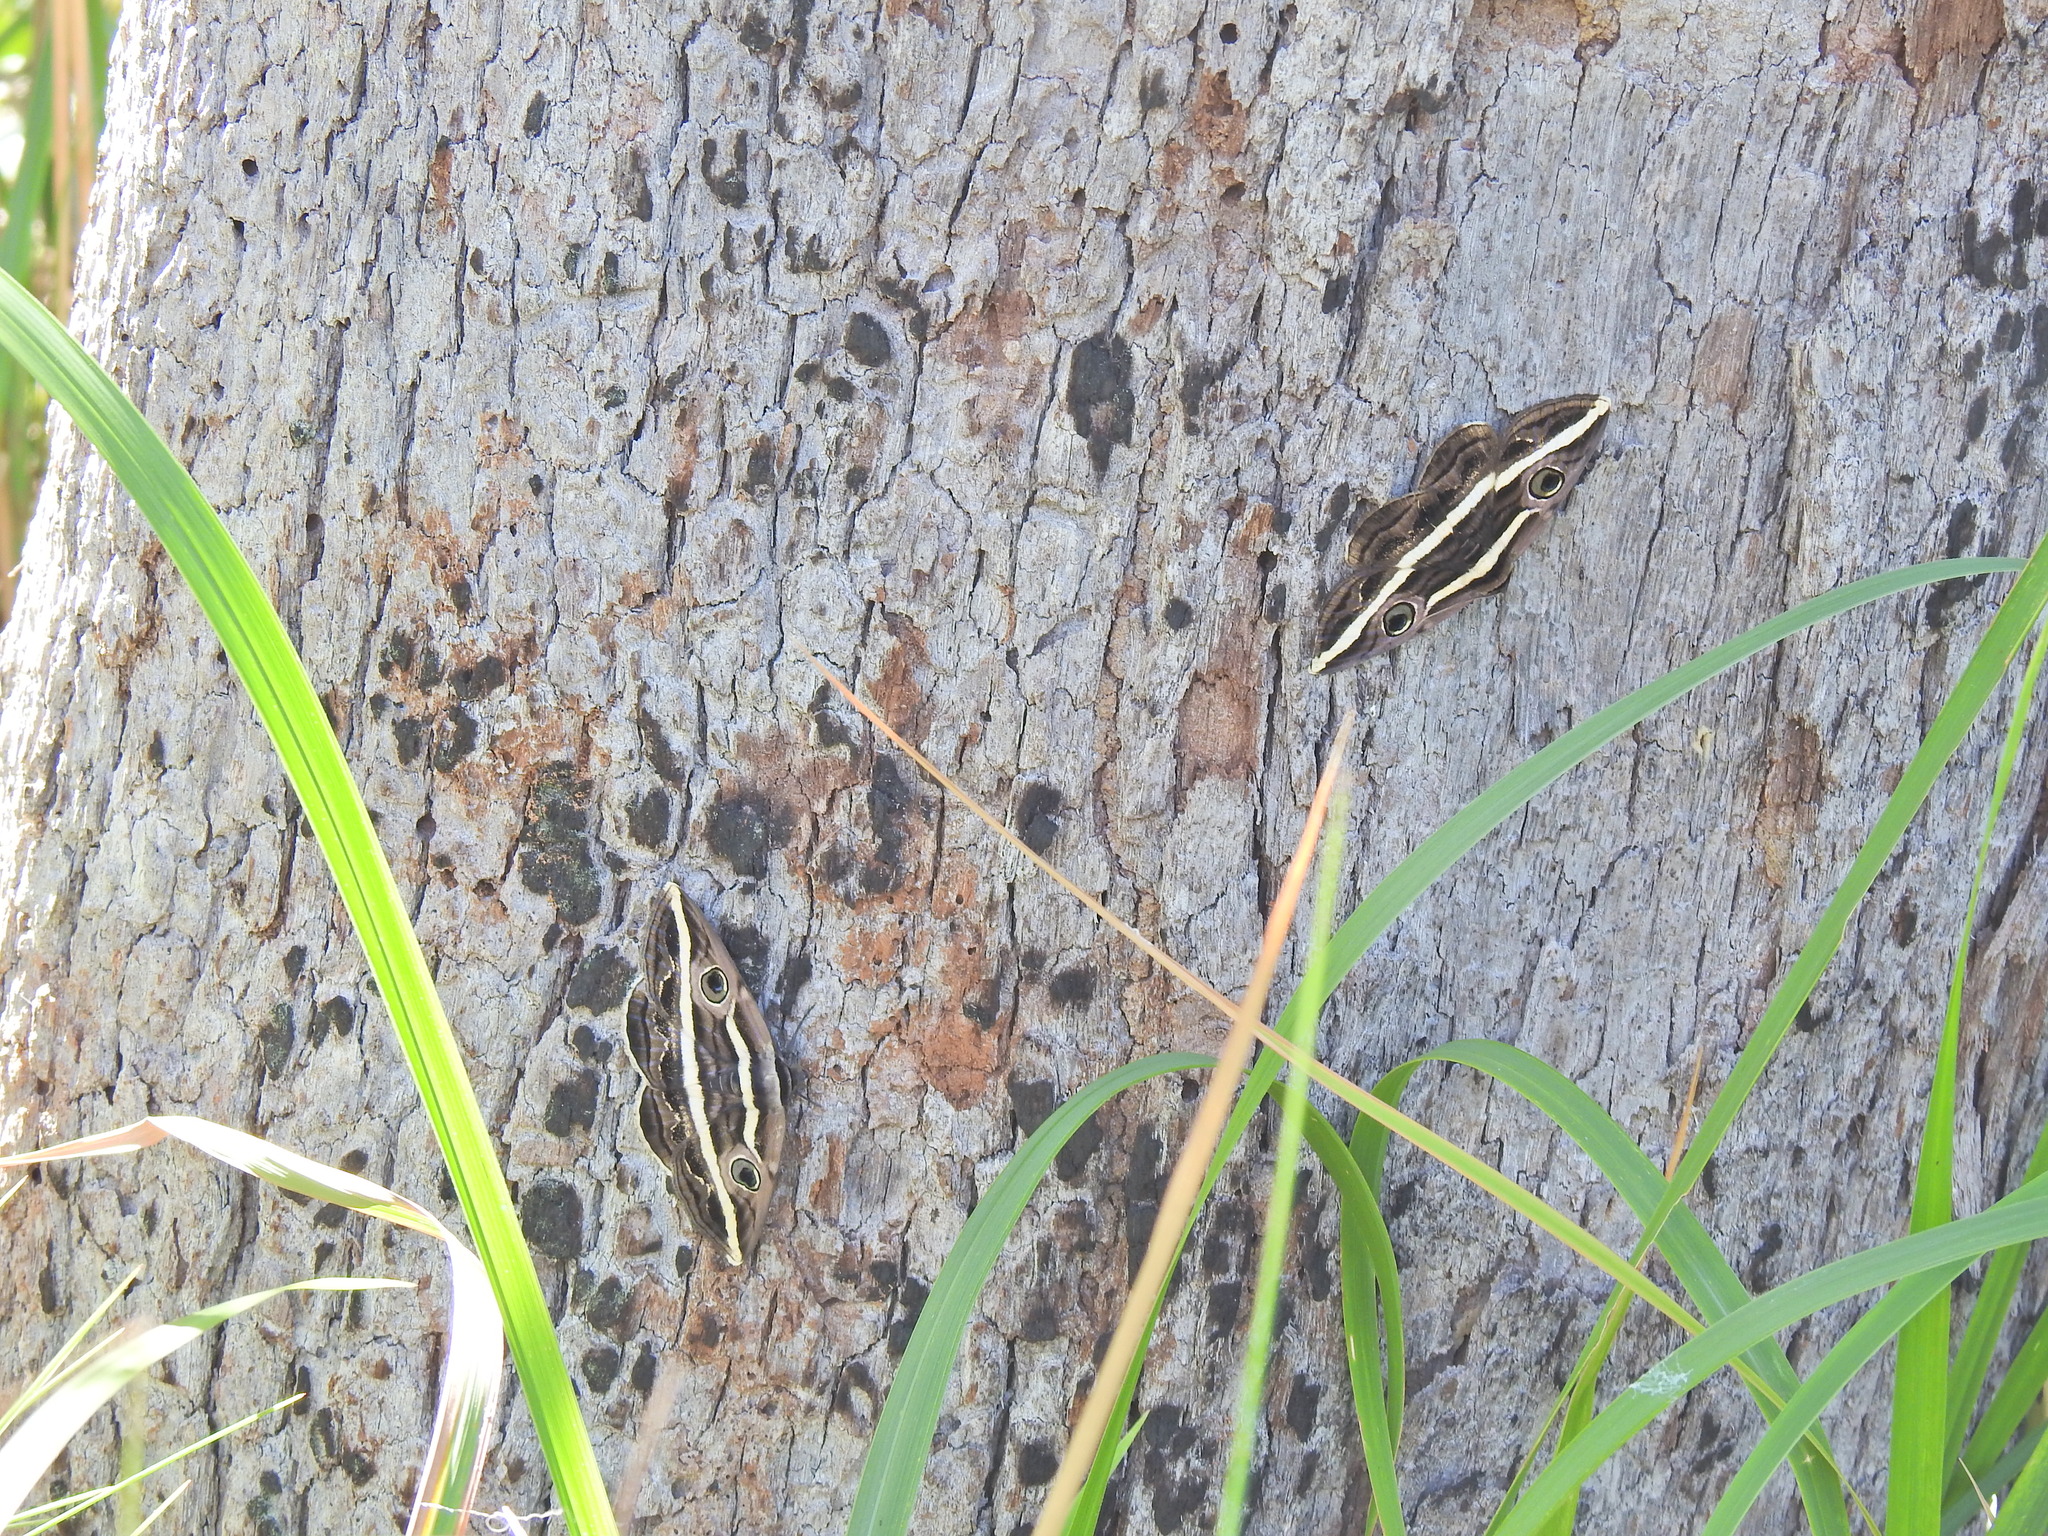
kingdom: Animalia
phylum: Arthropoda
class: Insecta
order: Lepidoptera
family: Erebidae
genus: Donuca
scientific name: Donuca rubropicta
